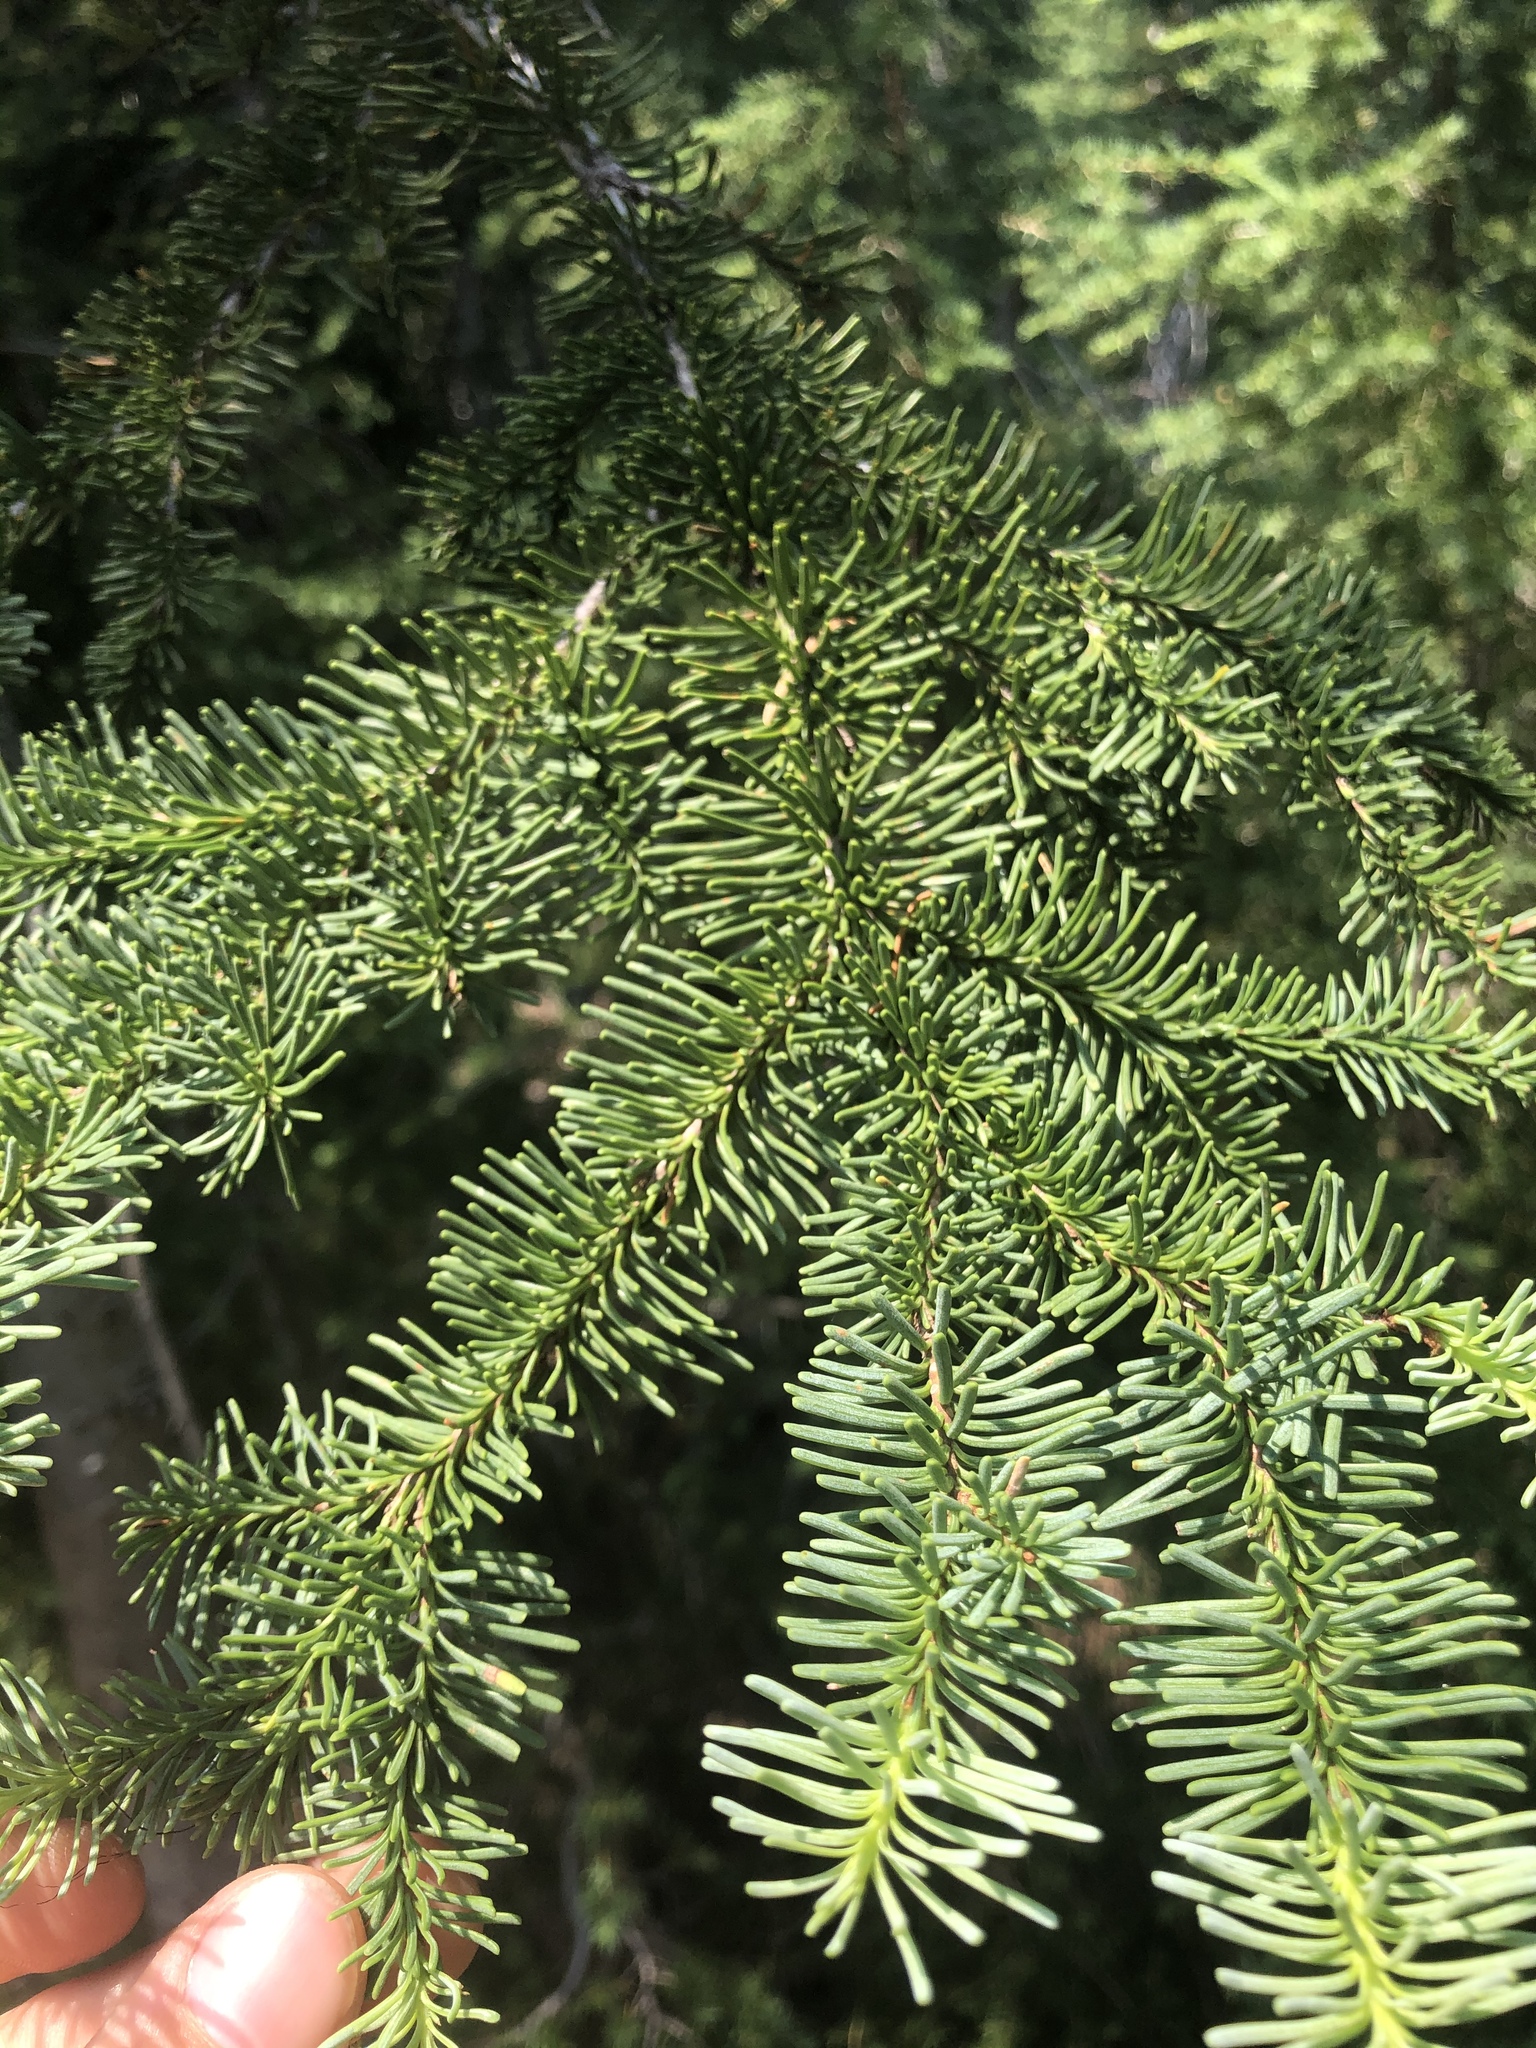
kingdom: Plantae
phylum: Tracheophyta
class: Pinopsida
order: Pinales
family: Pinaceae
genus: Abies
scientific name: Abies magnifica bis
